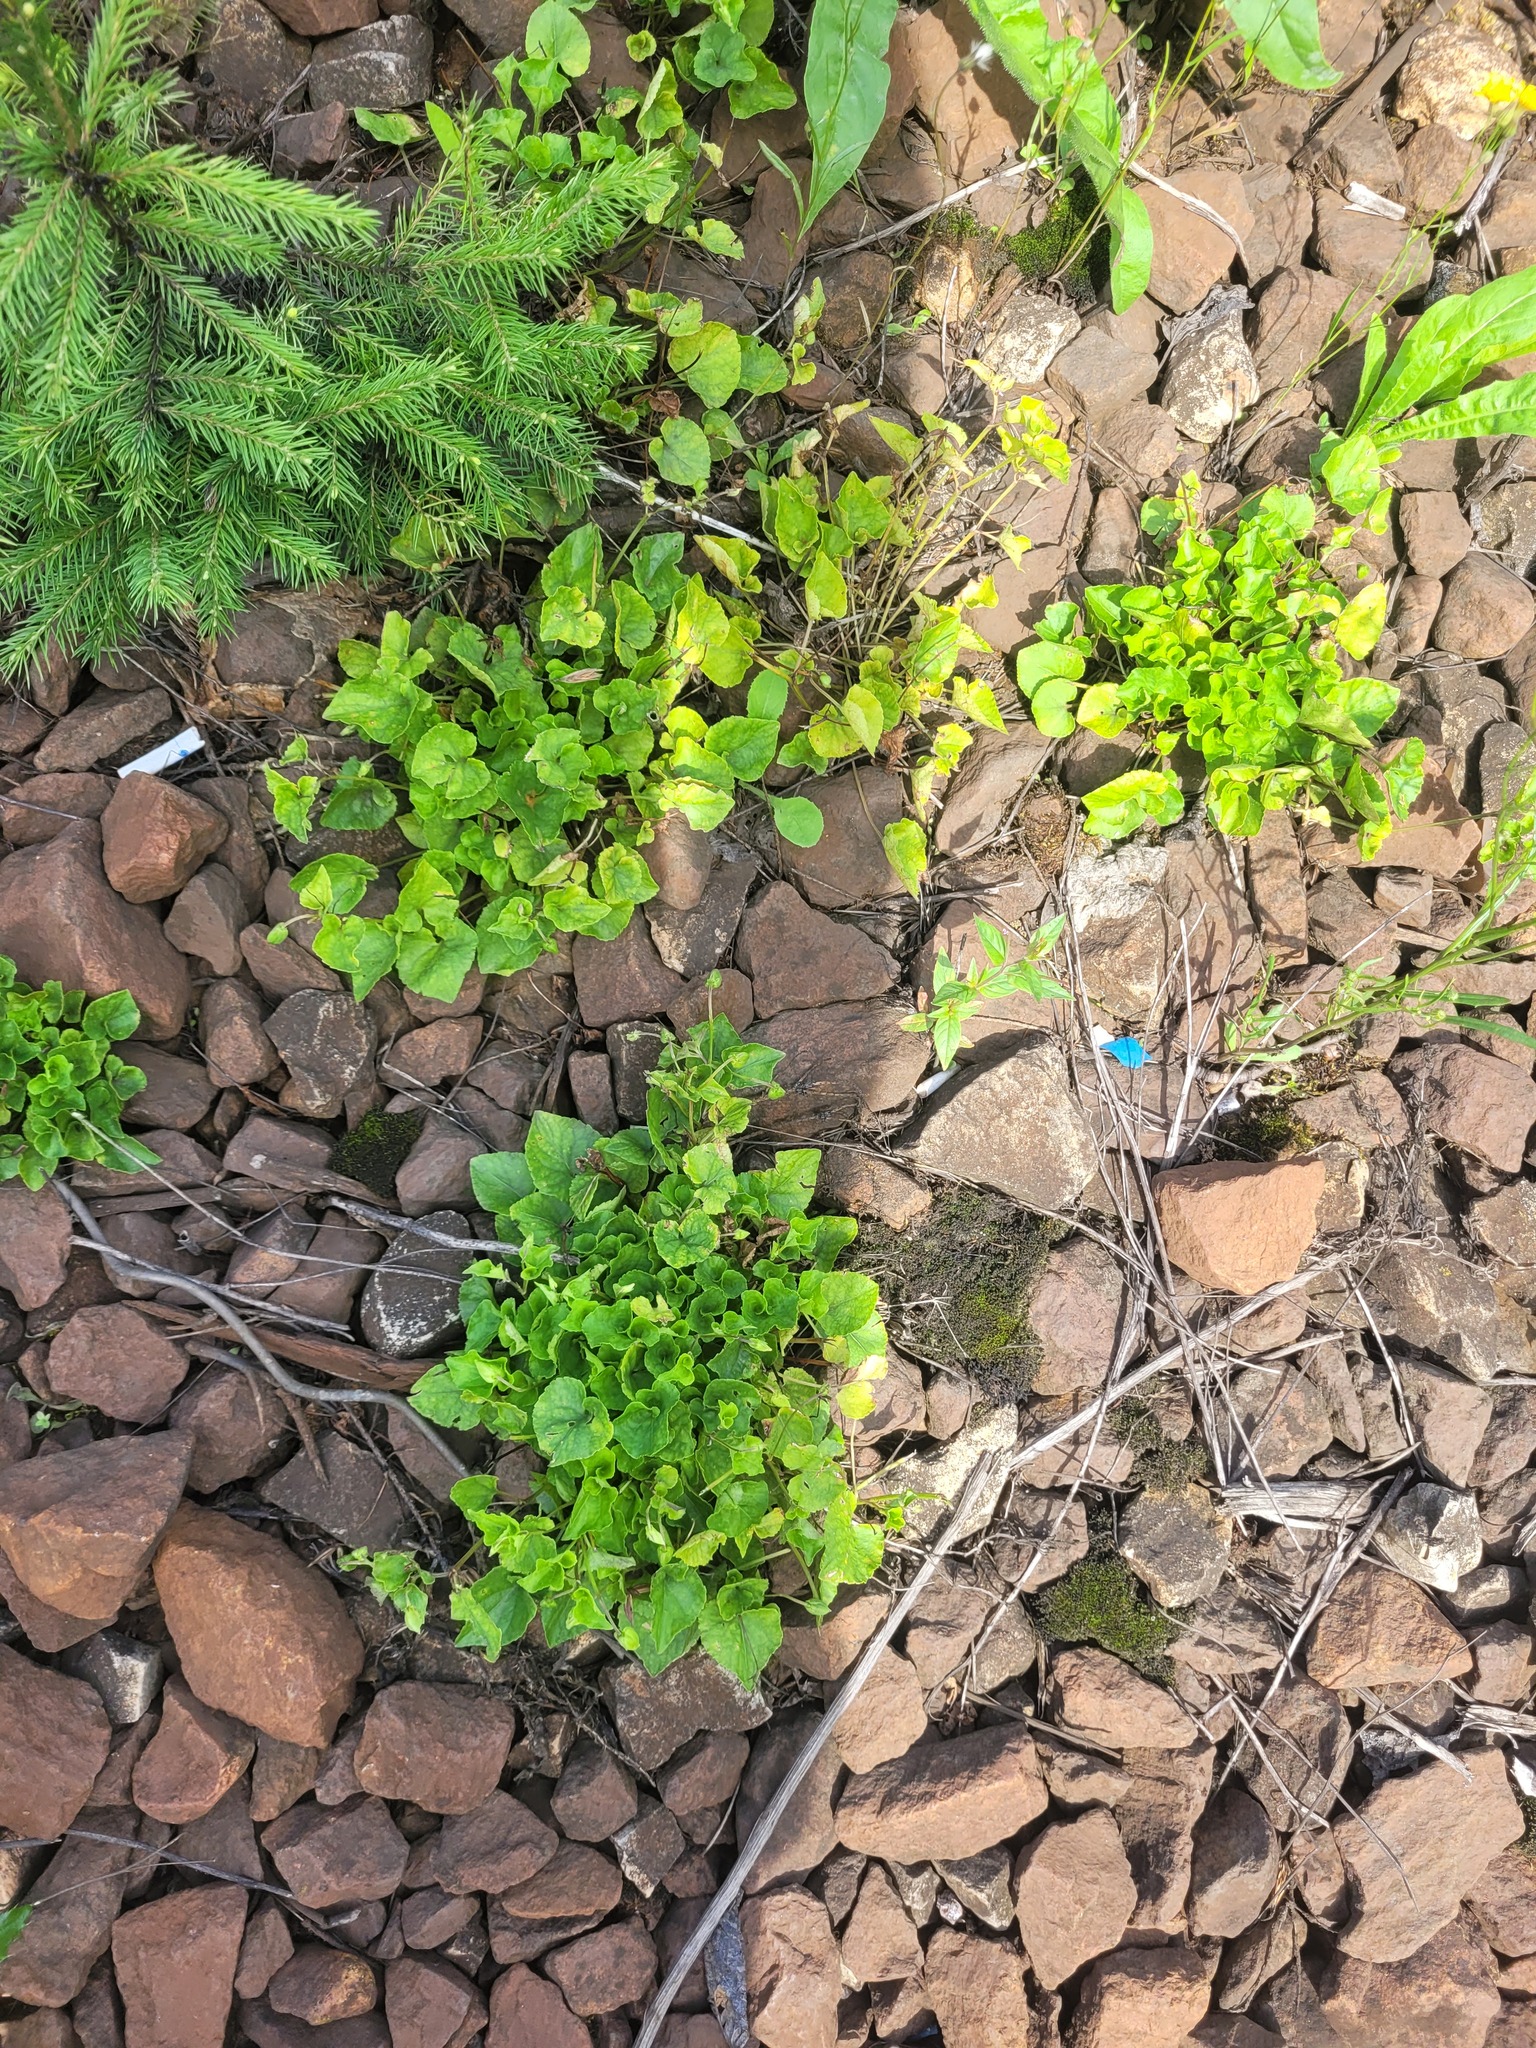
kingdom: Plantae
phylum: Tracheophyta
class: Magnoliopsida
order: Malpighiales
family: Violaceae
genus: Viola
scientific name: Viola riviniana
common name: Common dog-violet
